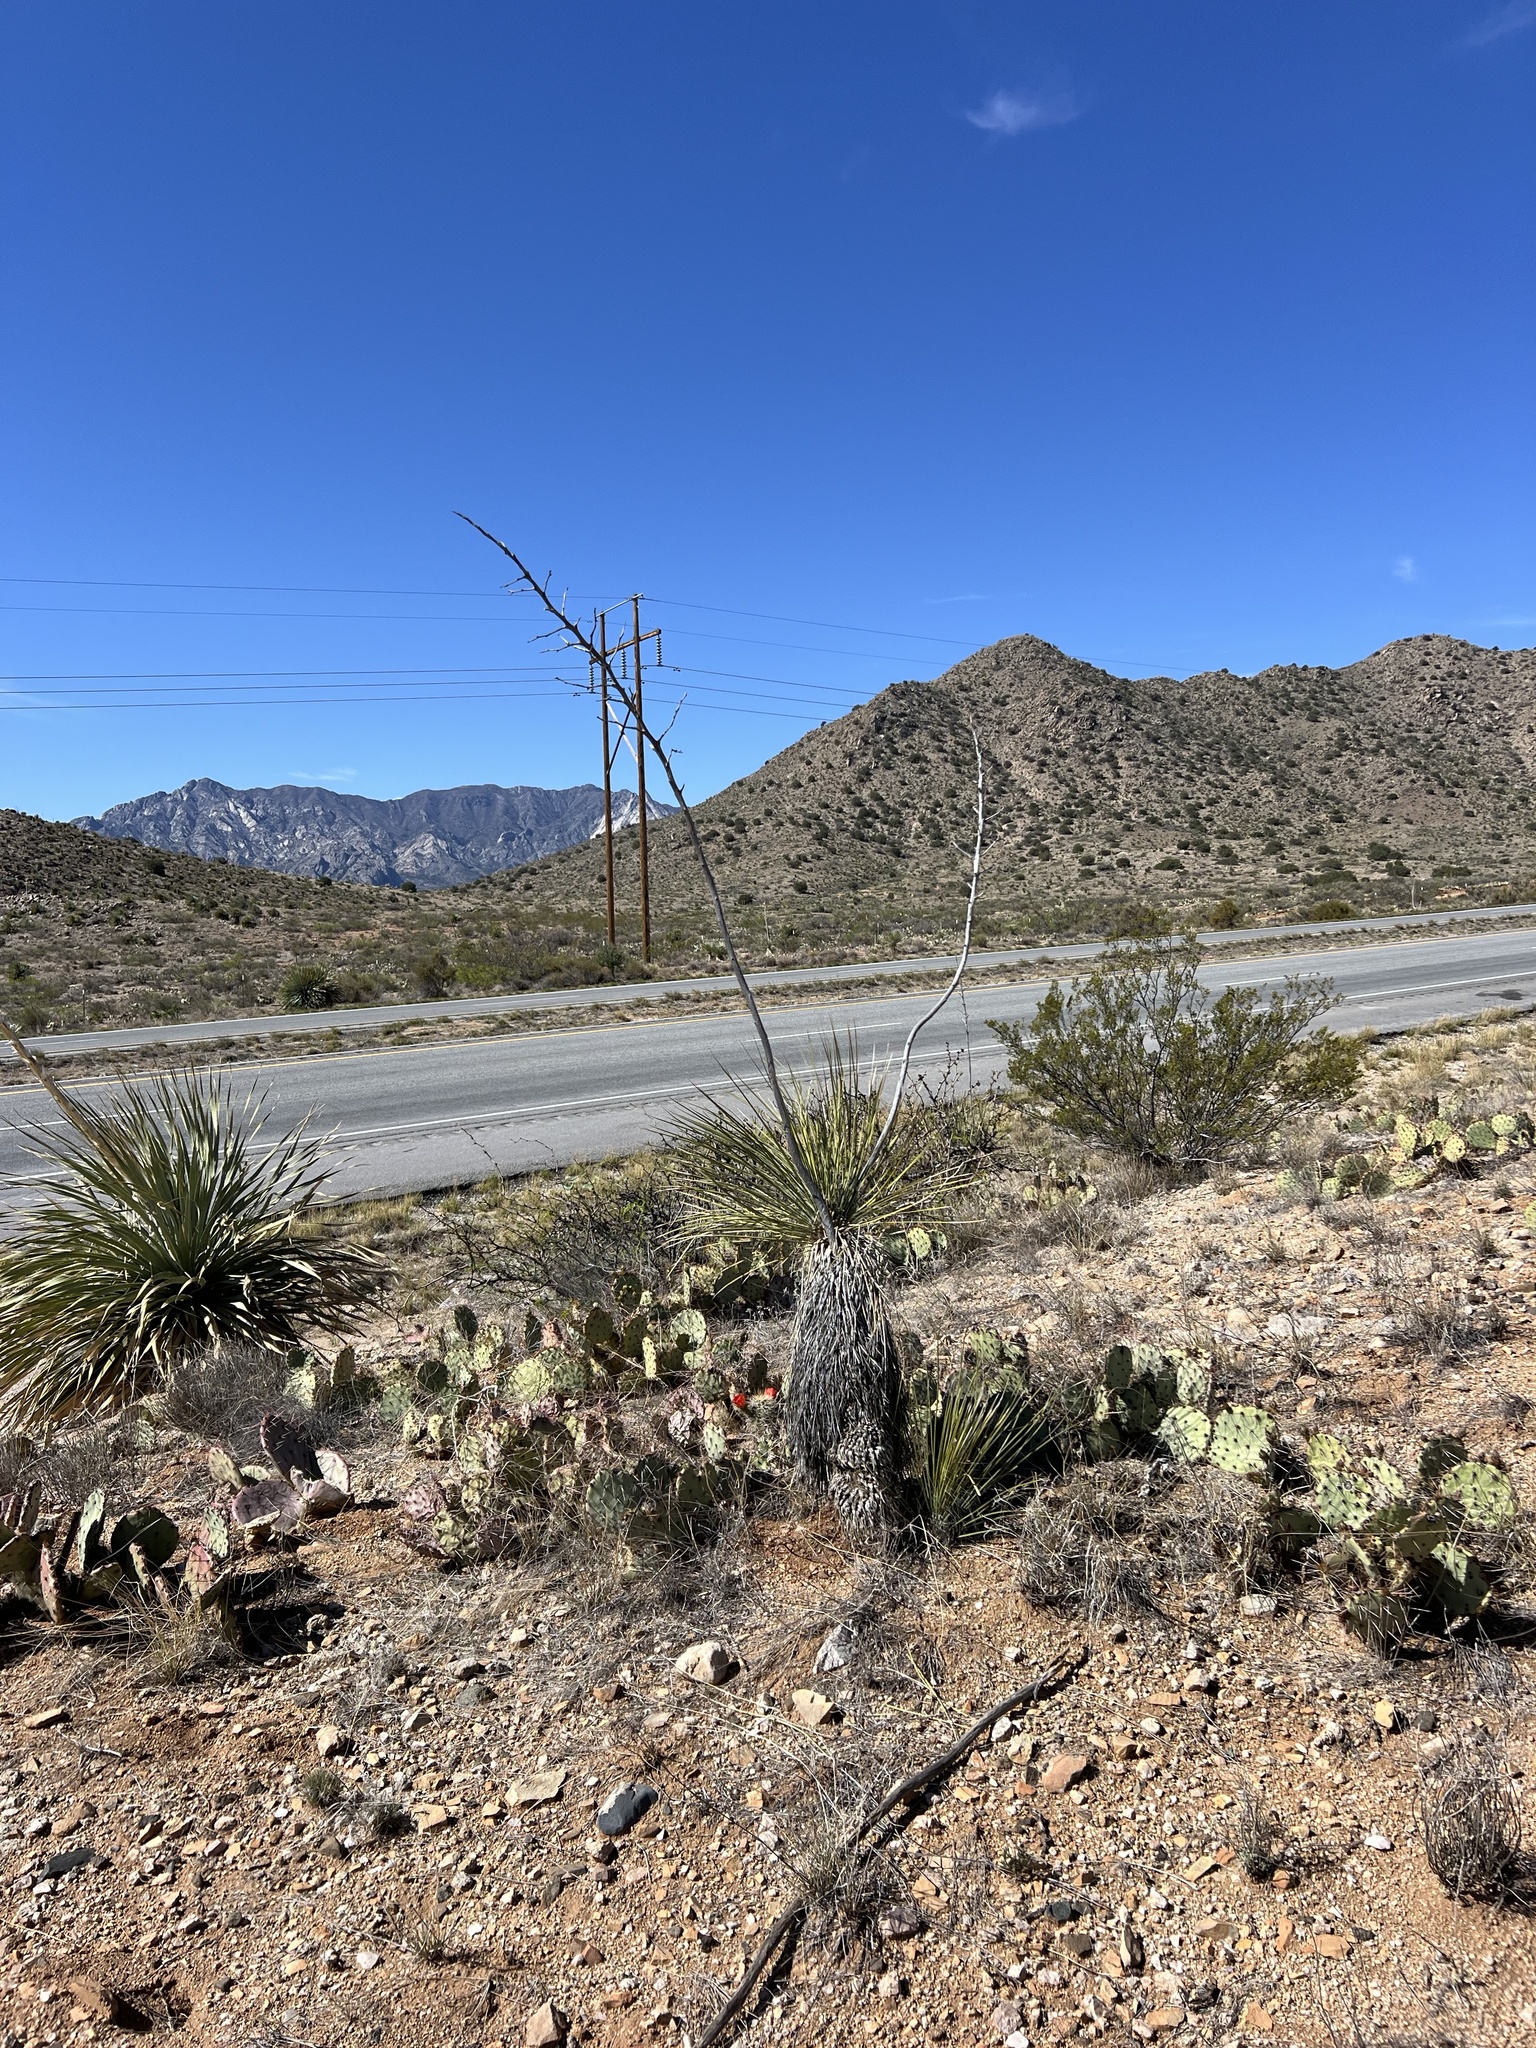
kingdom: Plantae
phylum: Tracheophyta
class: Liliopsida
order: Asparagales
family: Asparagaceae
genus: Yucca
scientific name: Yucca elata
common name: Palmella
